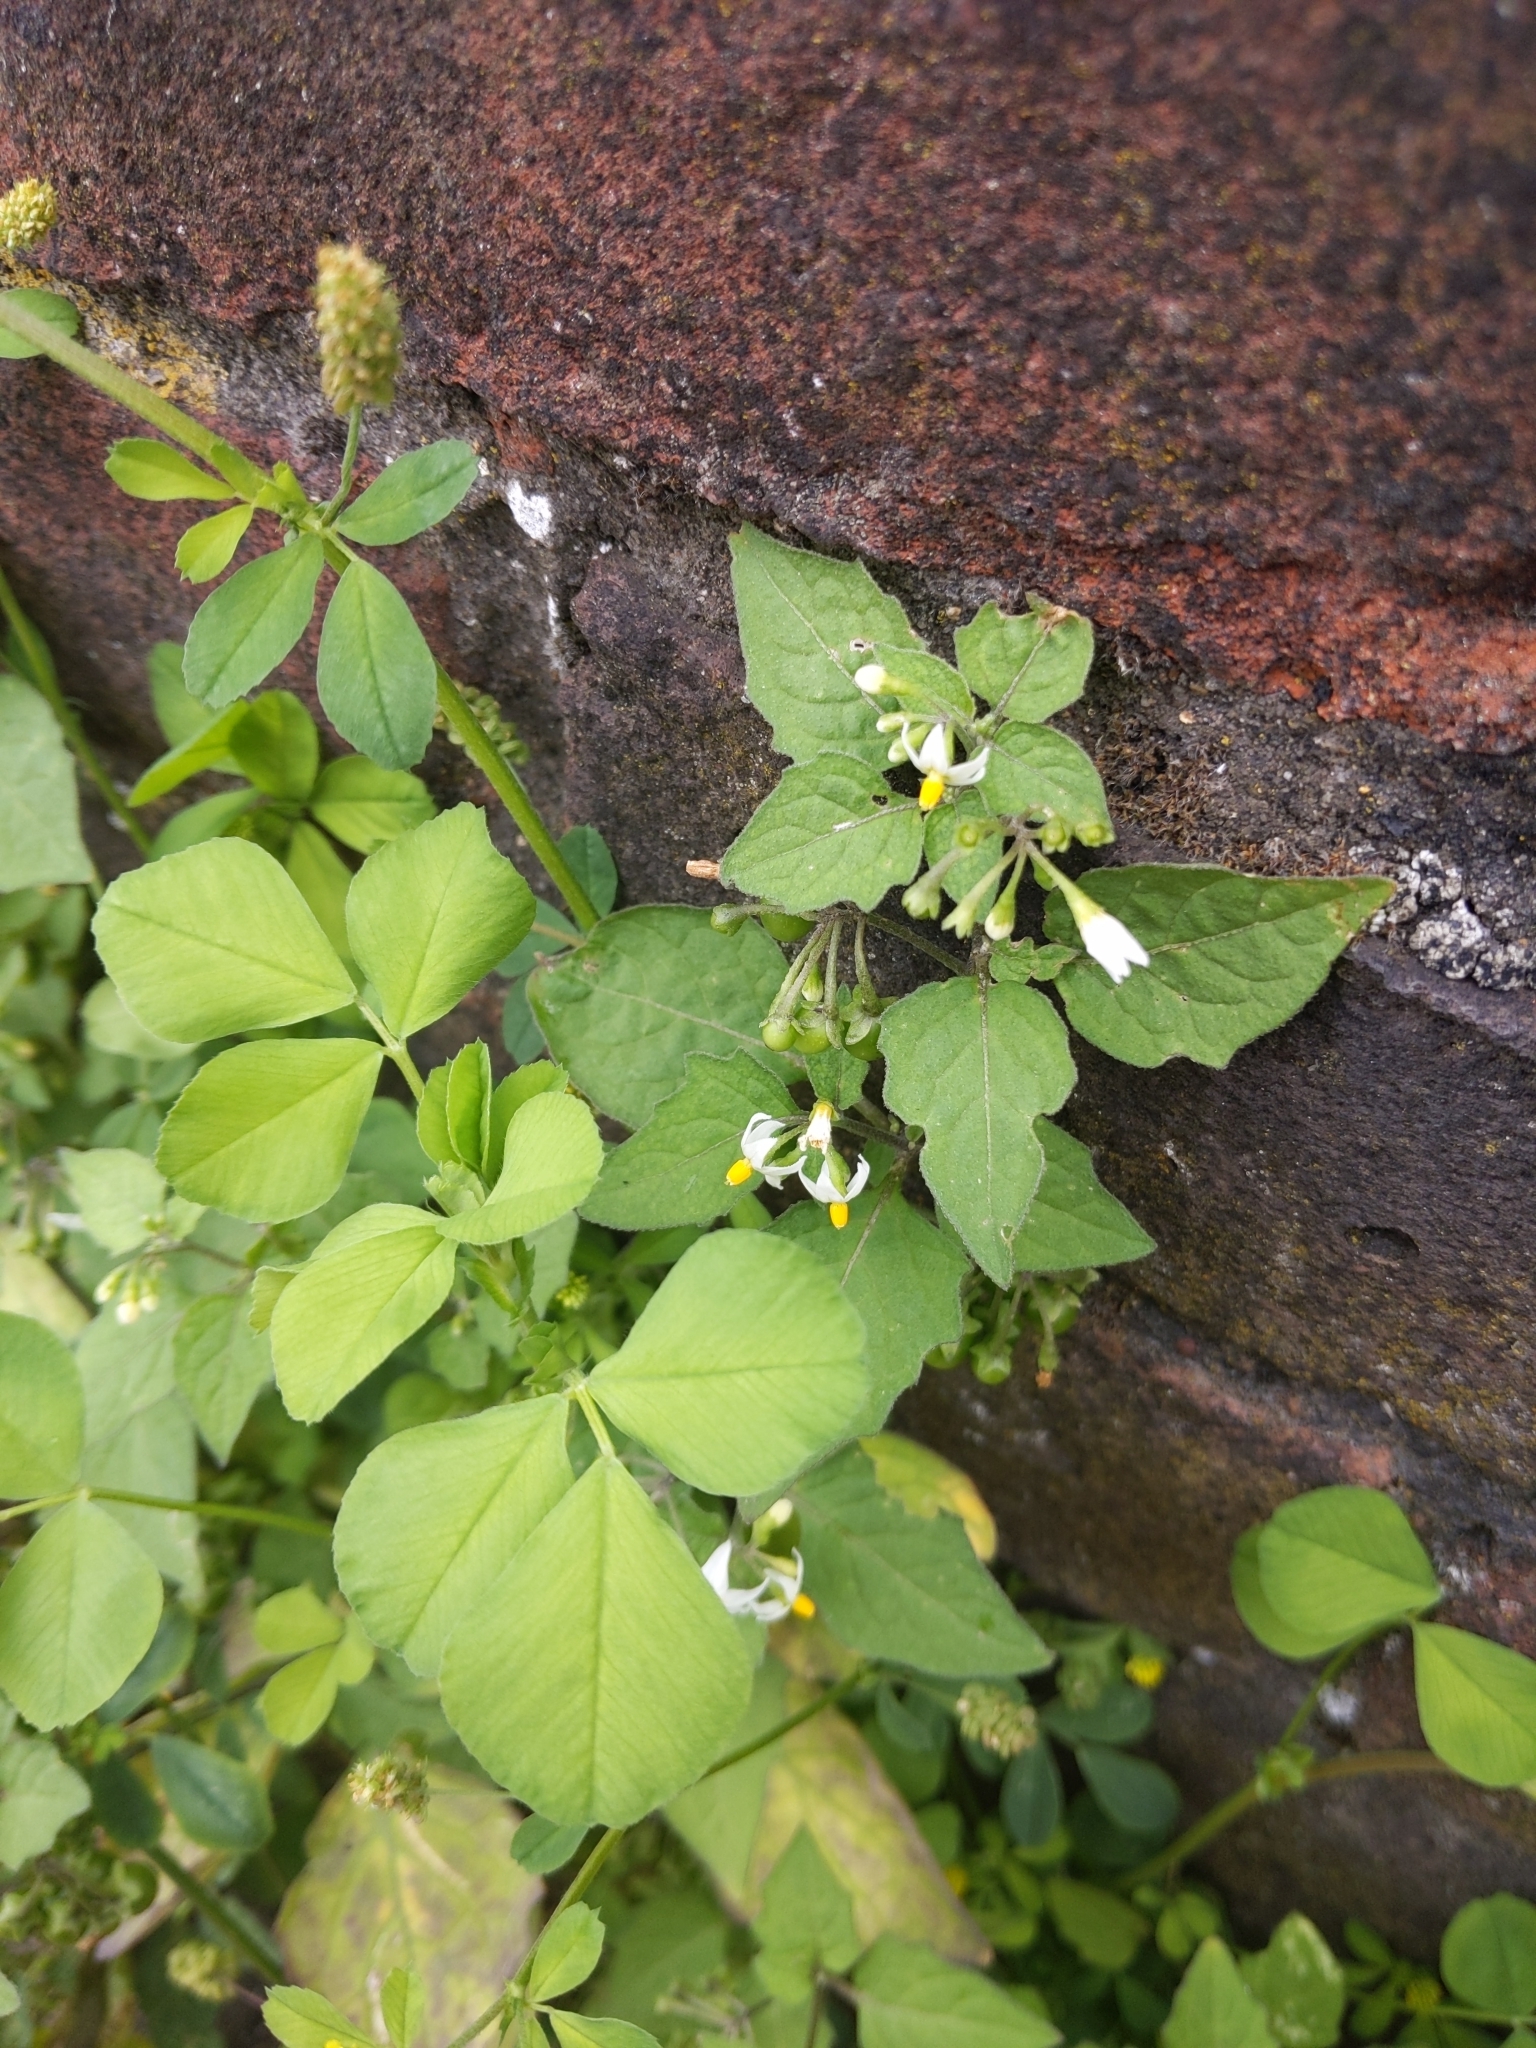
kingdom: Plantae
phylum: Tracheophyta
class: Magnoliopsida
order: Solanales
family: Solanaceae
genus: Solanum
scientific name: Solanum nigrum
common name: Black nightshade
